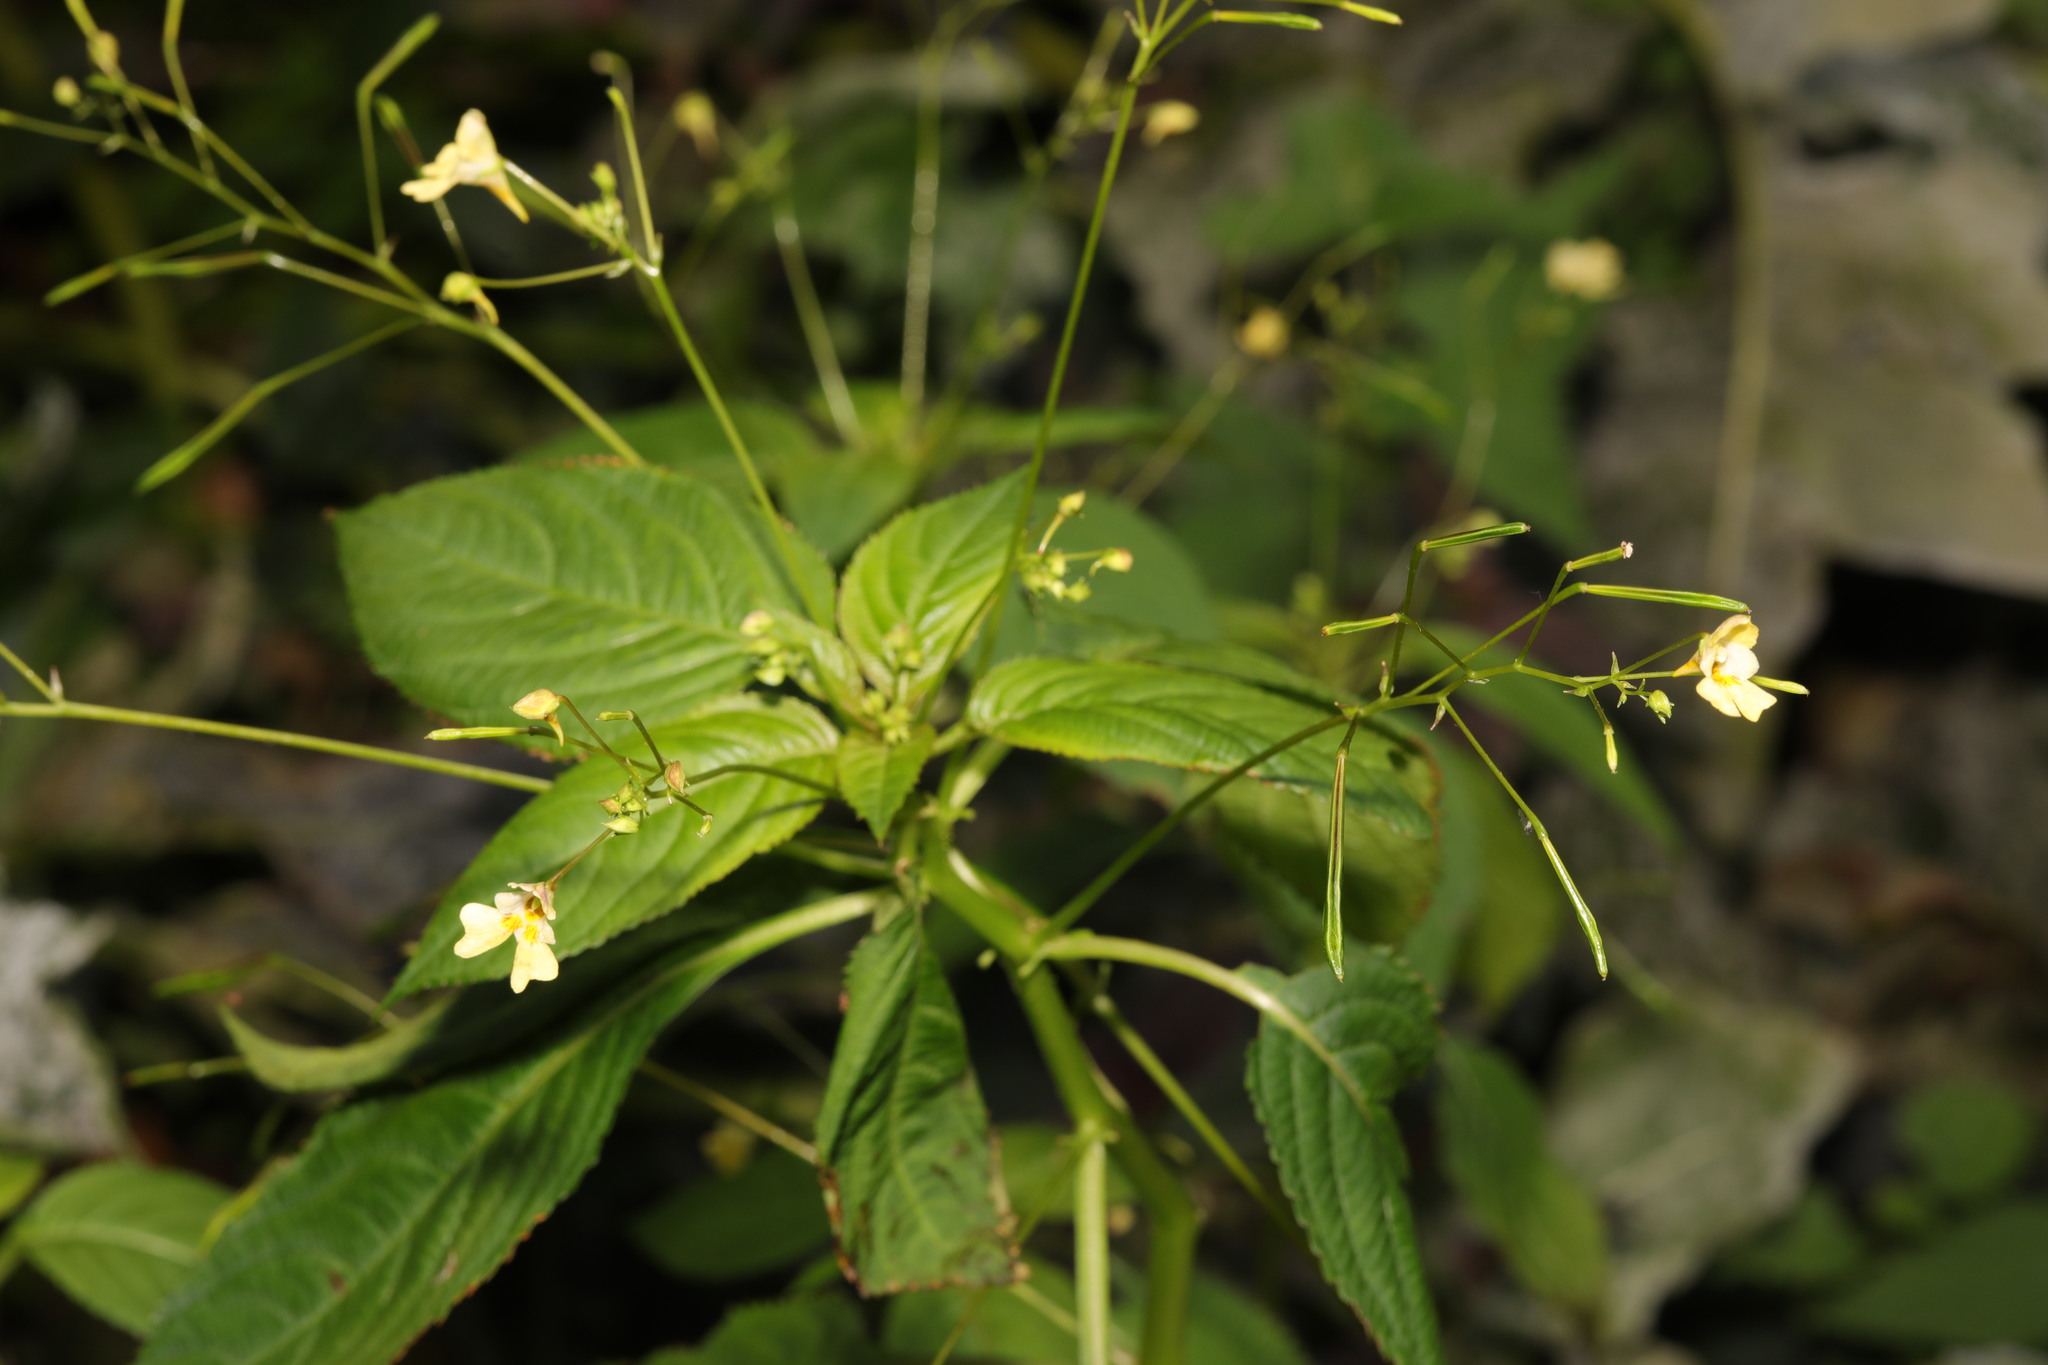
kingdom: Plantae
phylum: Tracheophyta
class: Magnoliopsida
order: Ericales
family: Balsaminaceae
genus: Impatiens
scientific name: Impatiens parviflora
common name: Small balsam
